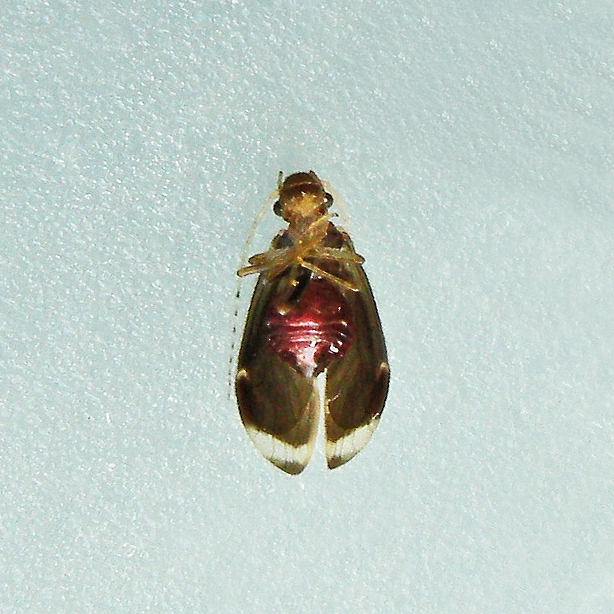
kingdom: Animalia
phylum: Arthropoda
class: Insecta
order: Psocodea
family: Amphipsocidae
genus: Polypsocus
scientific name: Polypsocus corruptus
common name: Corrupt barklouse
